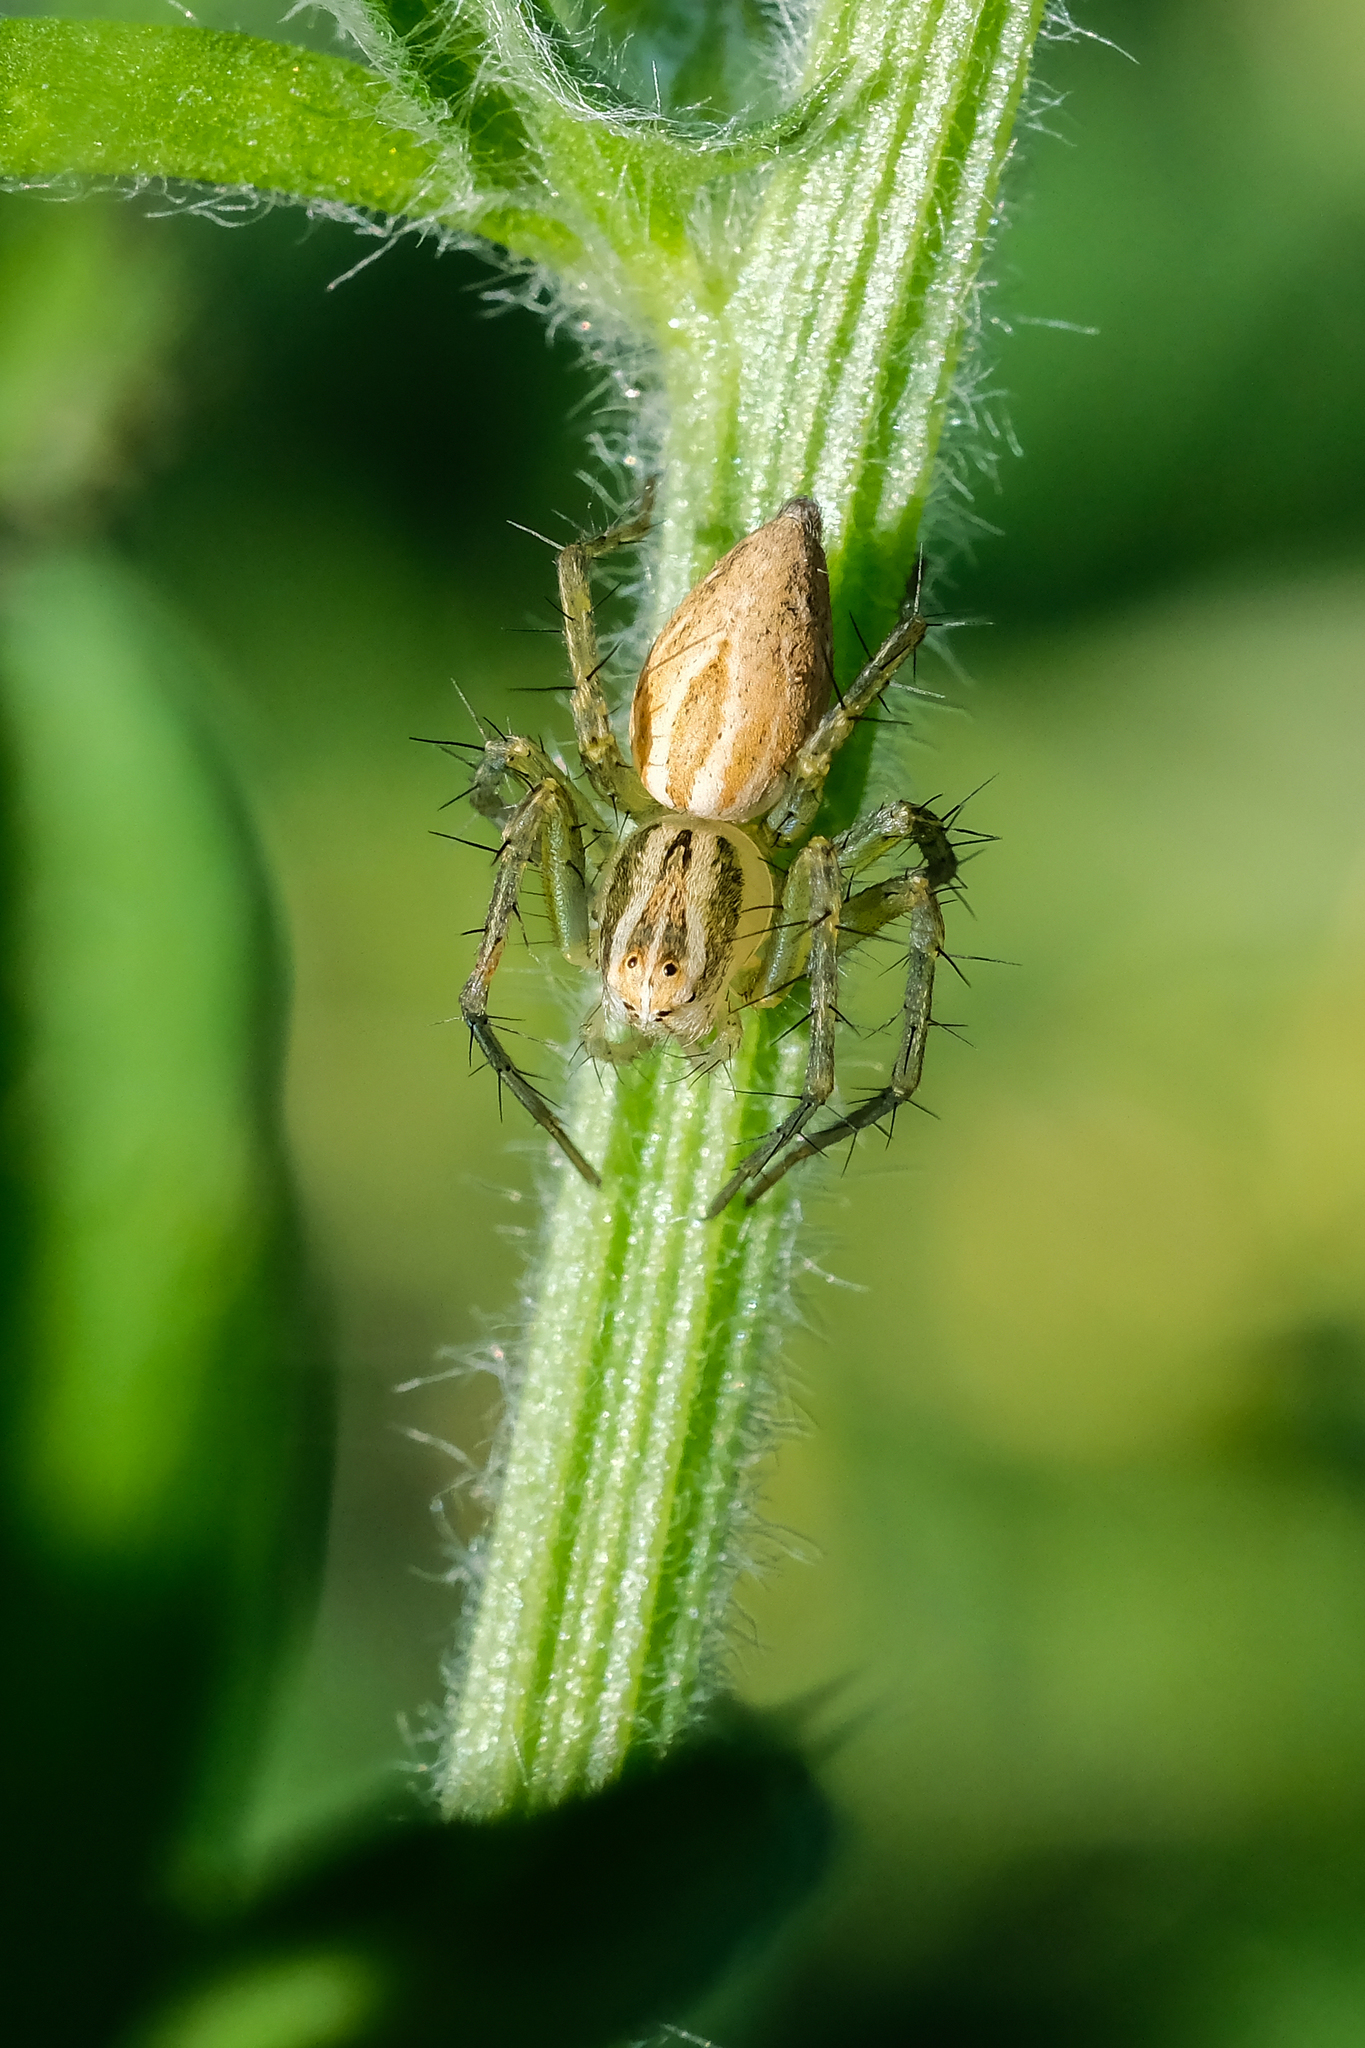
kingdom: Animalia
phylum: Arthropoda
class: Arachnida
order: Araneae
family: Oxyopidae
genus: Oxyopes
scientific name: Oxyopes lineatus
